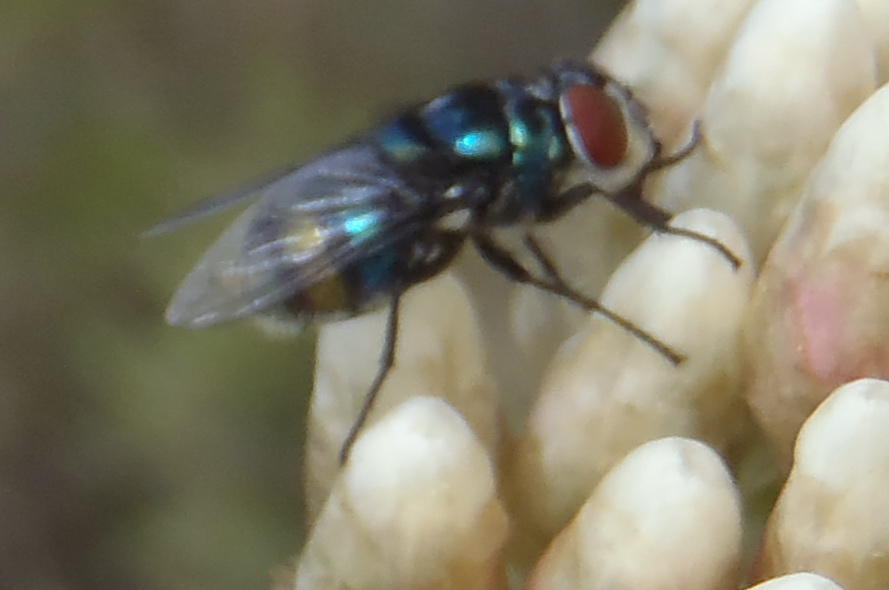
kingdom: Animalia
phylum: Arthropoda
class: Insecta
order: Diptera
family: Calliphoridae
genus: Chrysomya
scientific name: Chrysomya chloropyga
